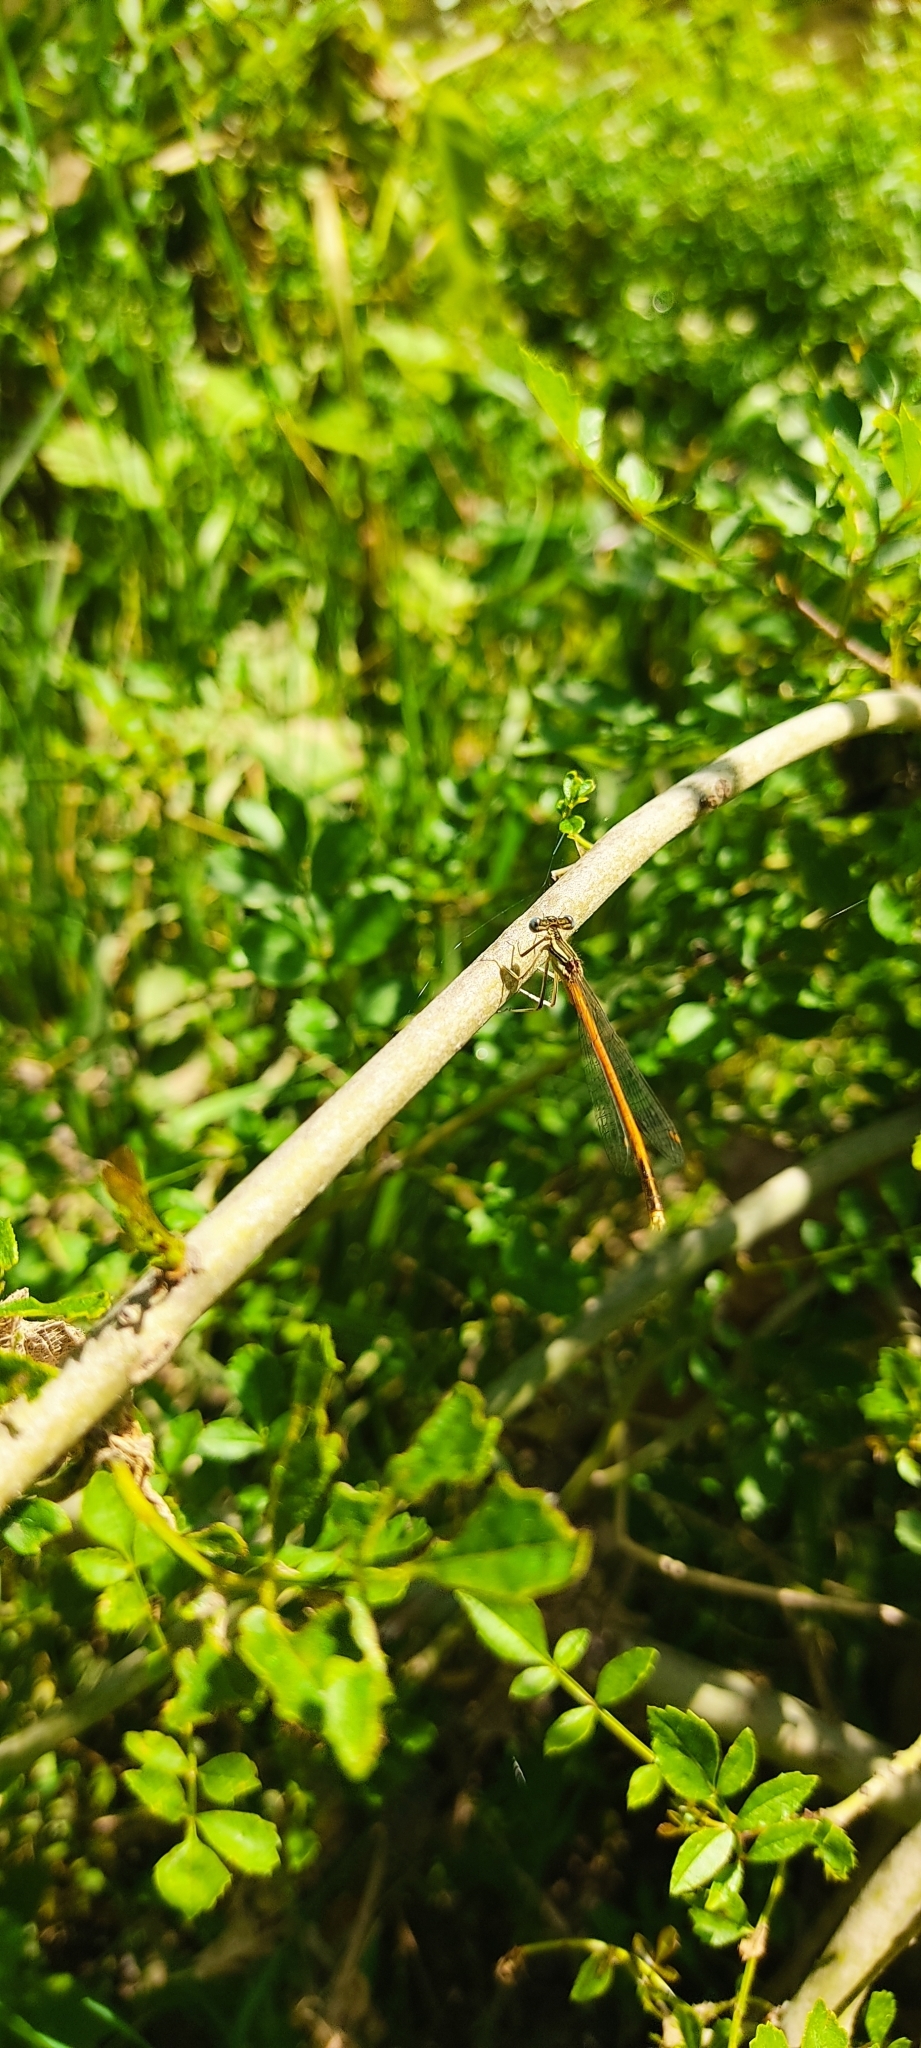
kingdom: Animalia
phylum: Arthropoda
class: Insecta
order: Odonata
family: Platycnemididae
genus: Platycnemis
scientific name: Platycnemis acutipennis
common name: Orange featherleg
